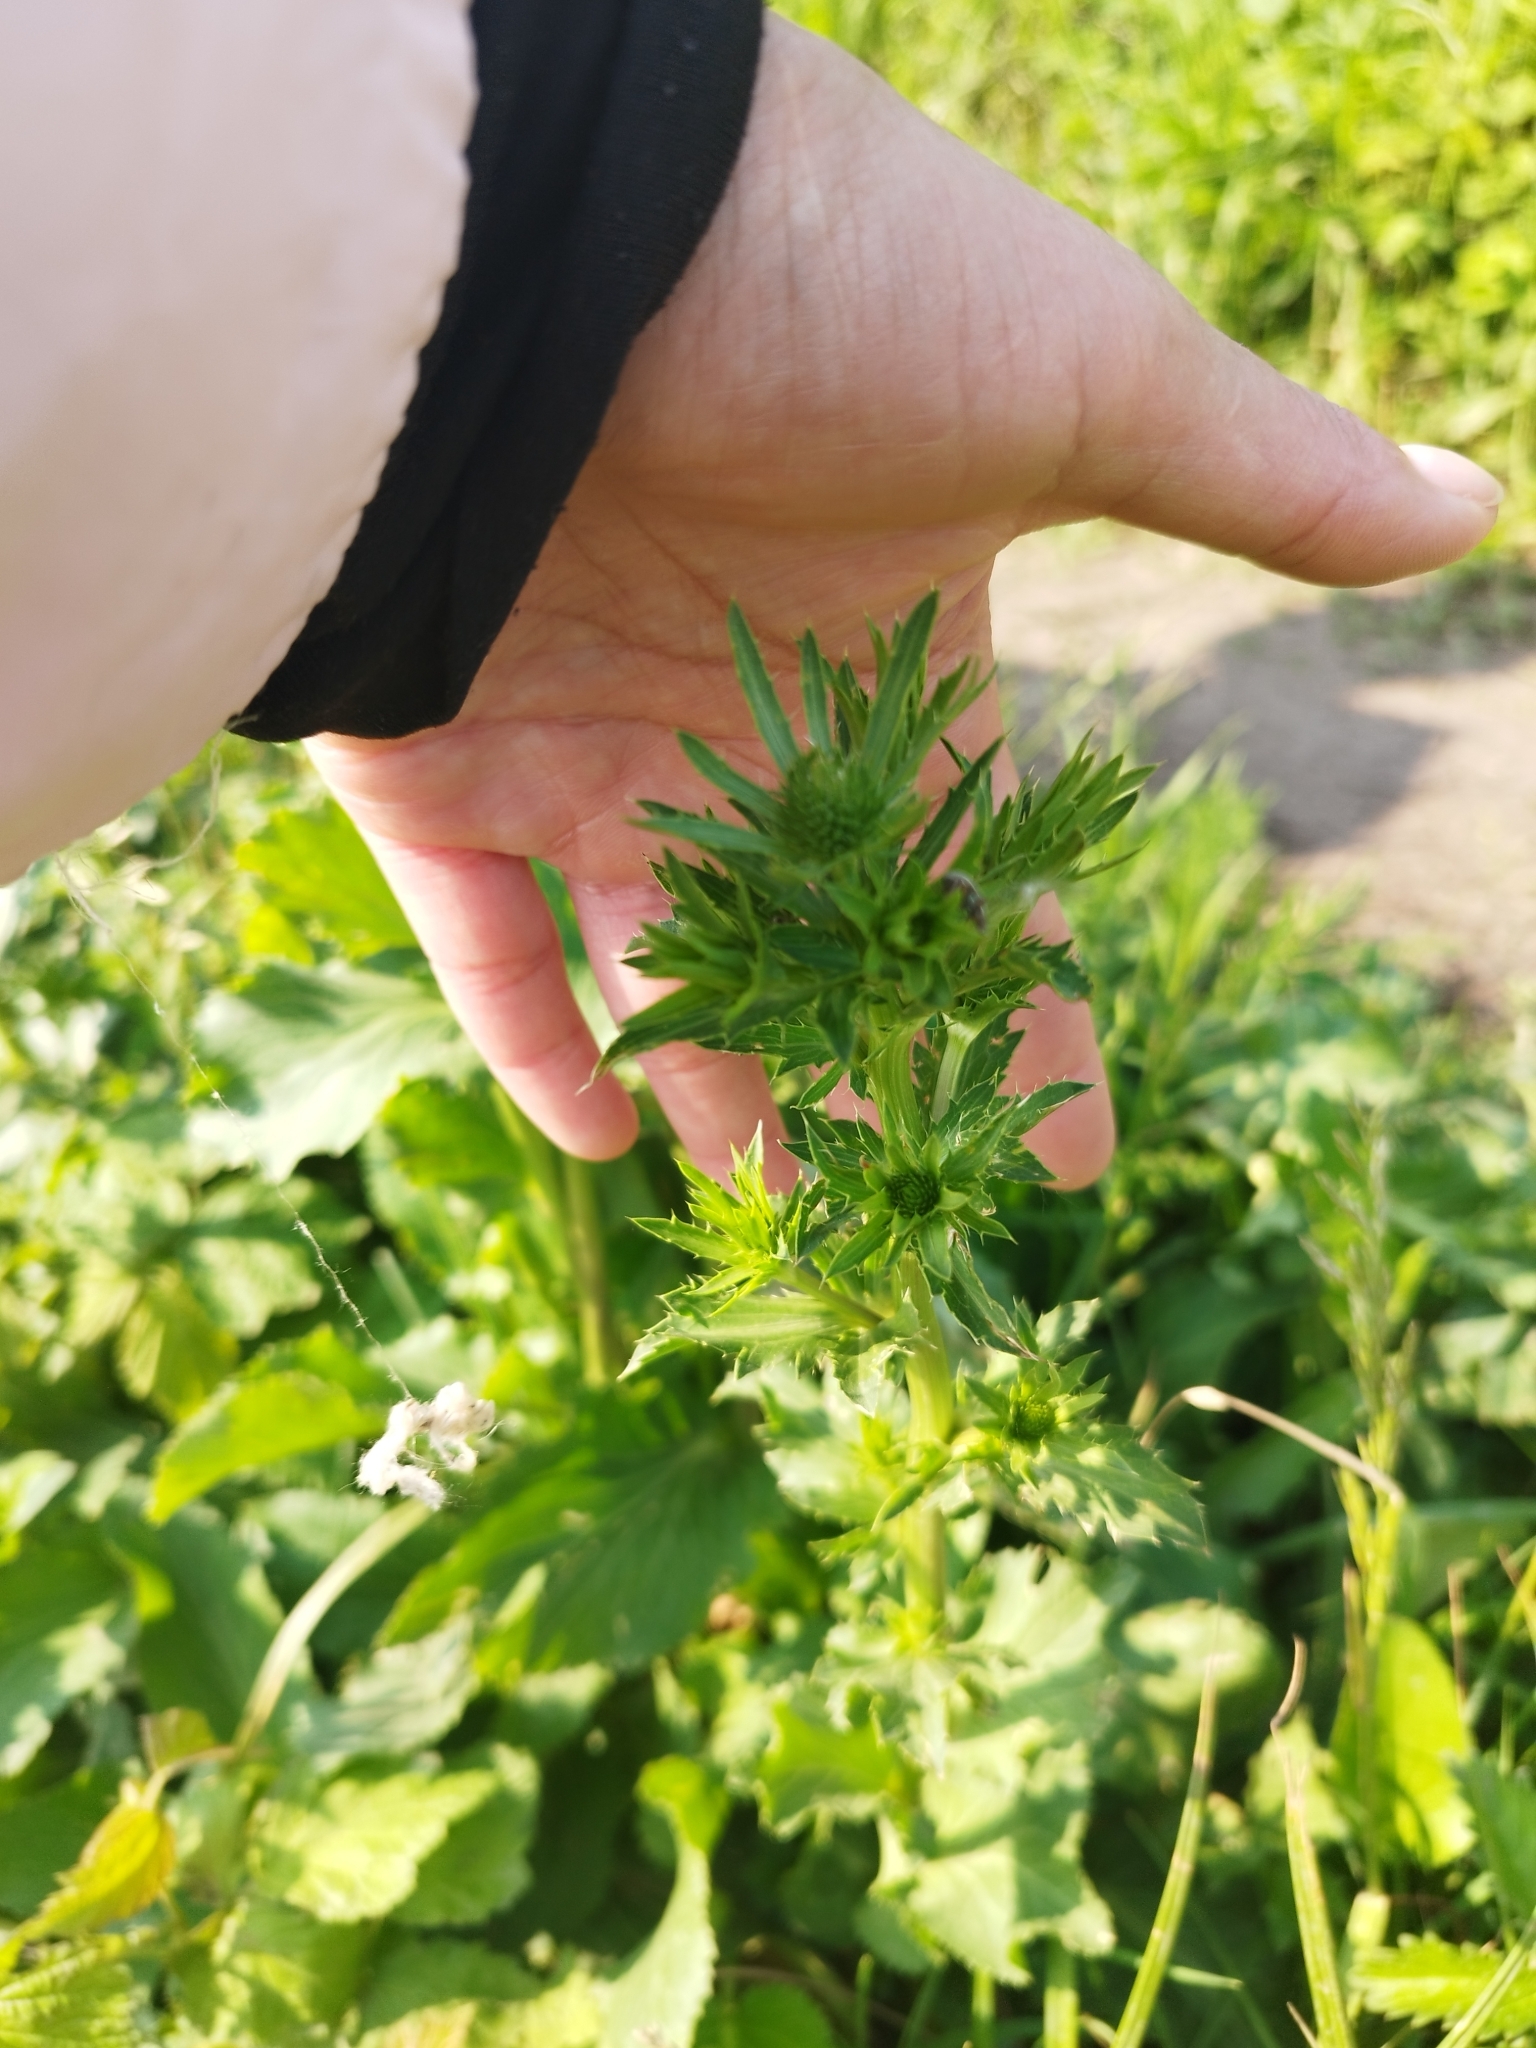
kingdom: Plantae
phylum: Tracheophyta
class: Magnoliopsida
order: Apiales
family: Apiaceae
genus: Eryngium
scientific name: Eryngium planum
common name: Blue eryngo
